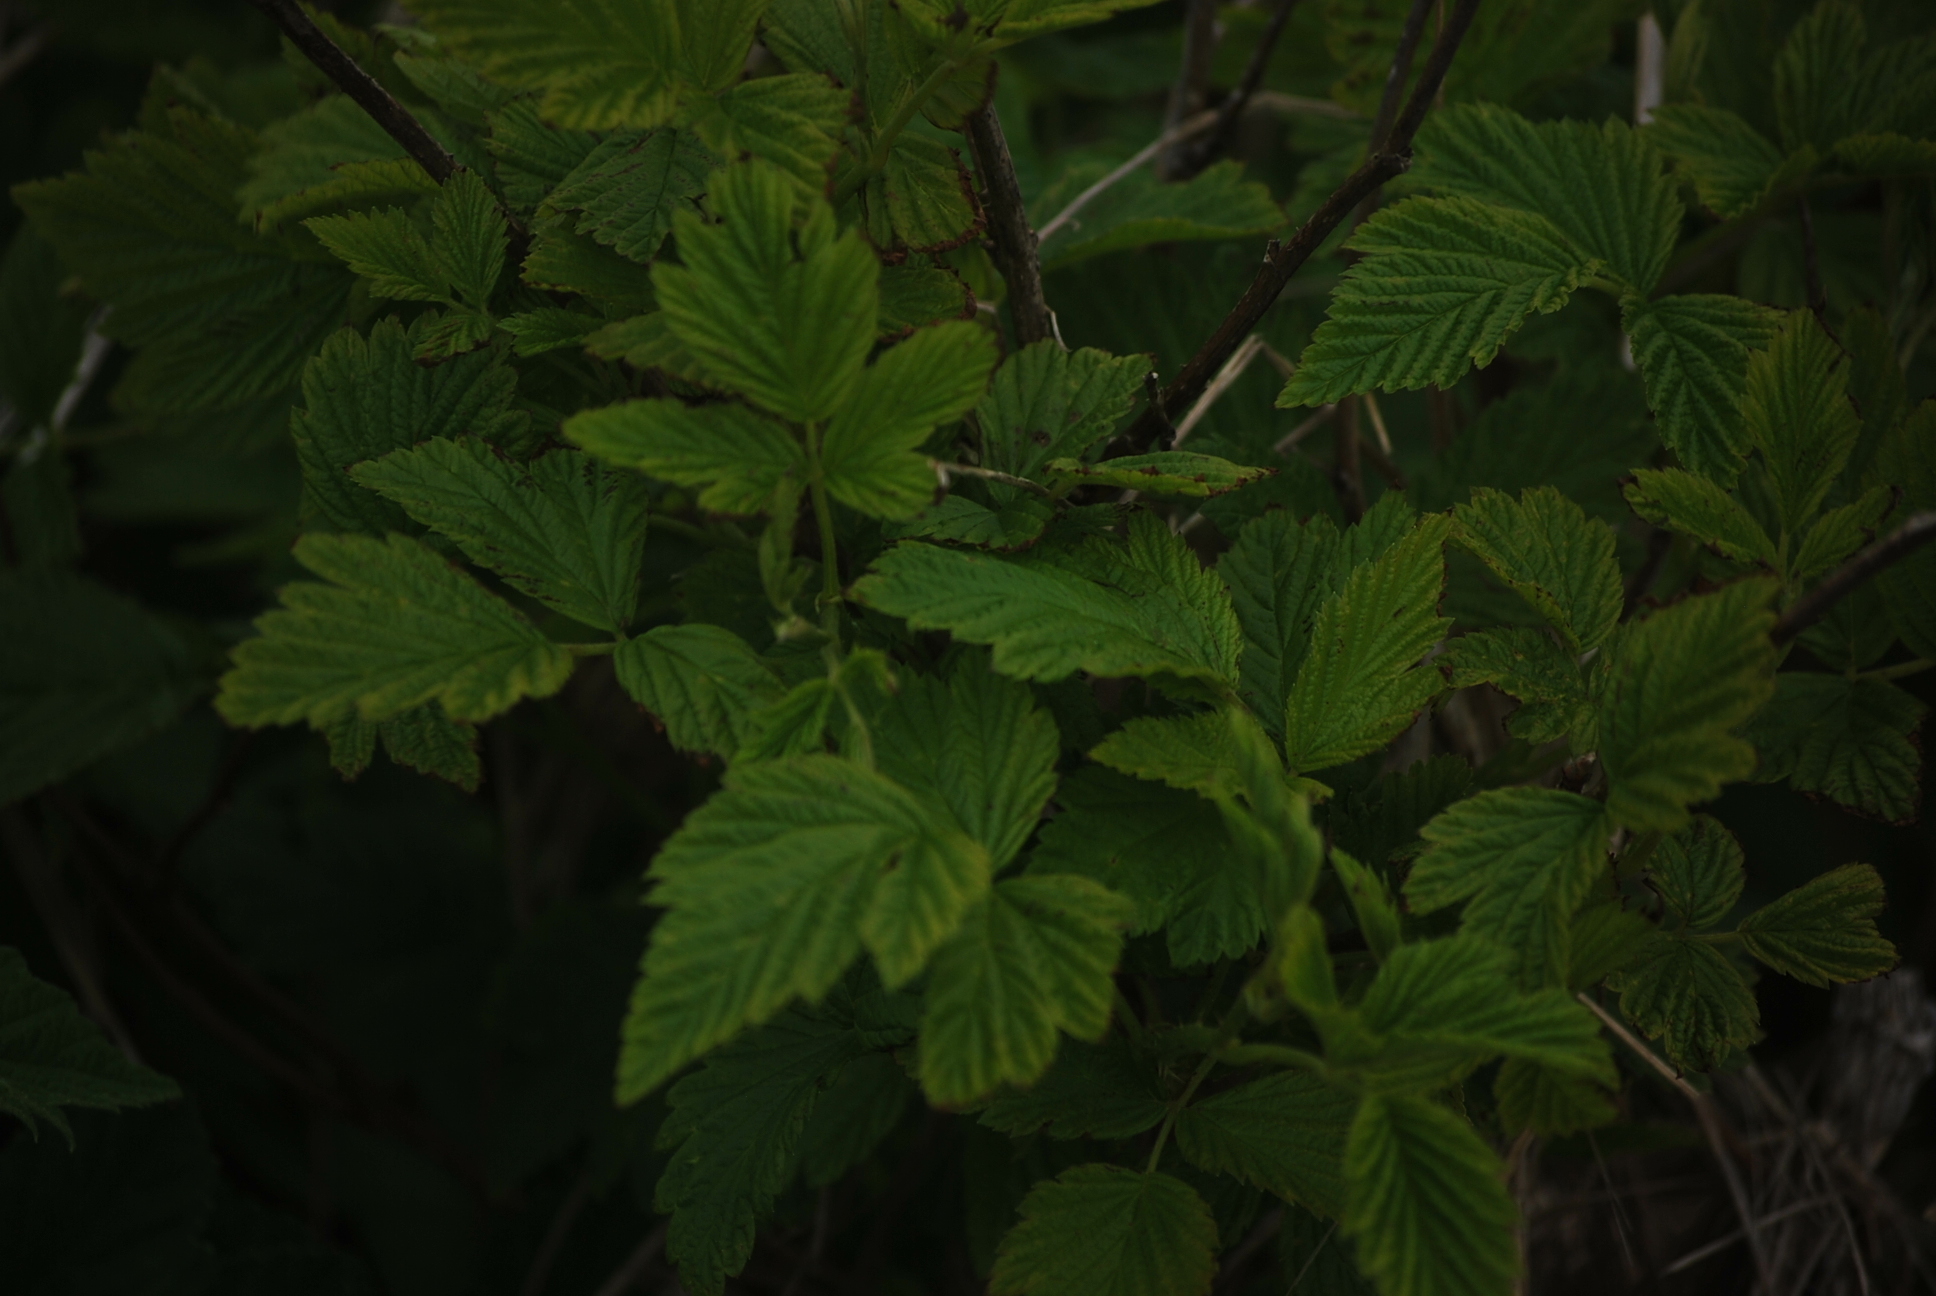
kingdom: Plantae
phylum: Tracheophyta
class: Magnoliopsida
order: Rosales
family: Rosaceae
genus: Rubus
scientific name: Rubus idaeus
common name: Raspberry
